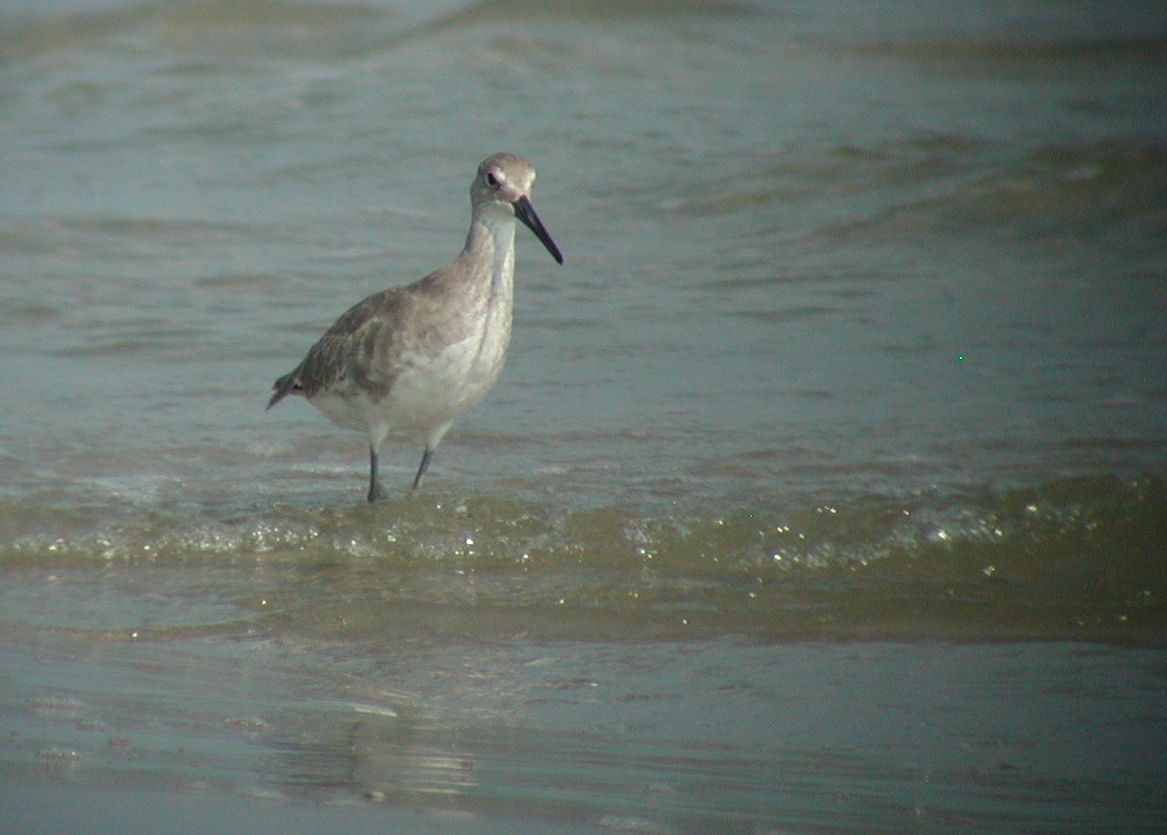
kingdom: Animalia
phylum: Chordata
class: Aves
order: Charadriiformes
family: Scolopacidae
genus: Tringa
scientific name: Tringa semipalmata
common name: Willet
